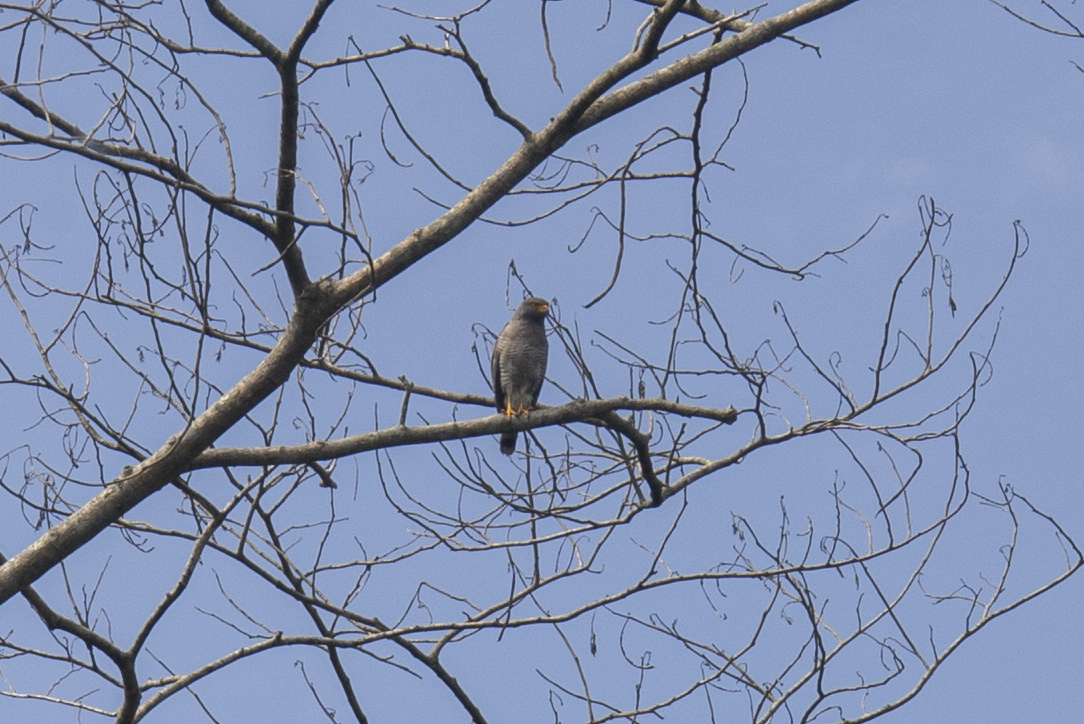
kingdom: Animalia
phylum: Chordata
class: Aves
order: Accipitriformes
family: Accipitridae
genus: Rupornis
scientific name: Rupornis magnirostris
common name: Roadside hawk
